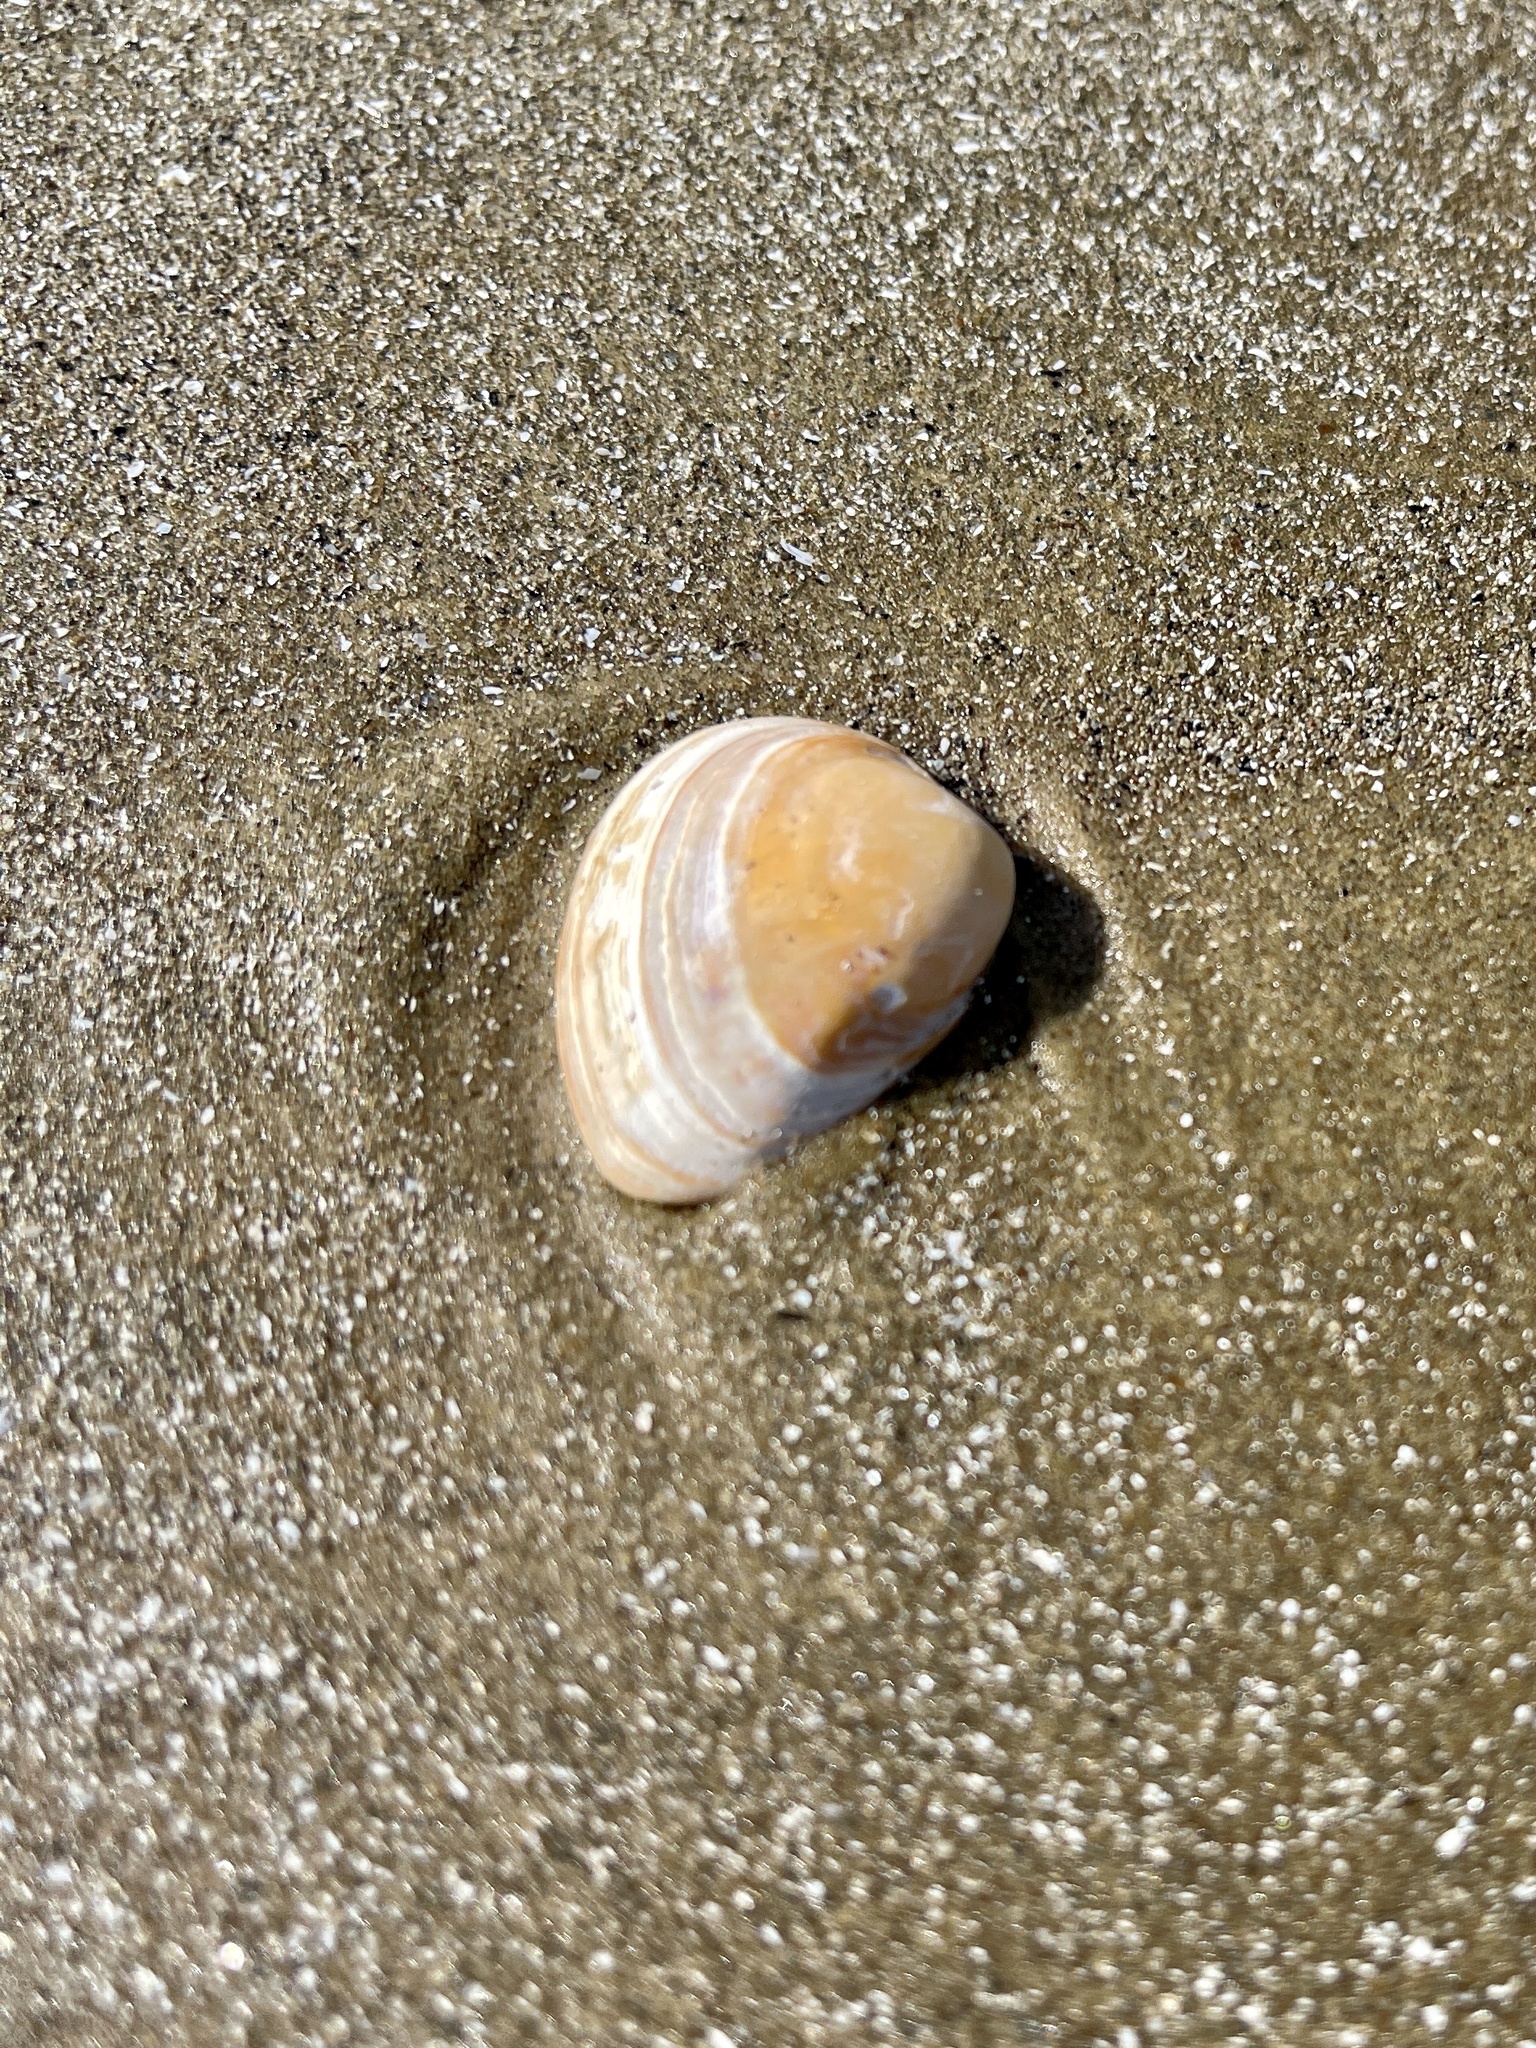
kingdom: Animalia
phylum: Mollusca
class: Bivalvia
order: Venerida
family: Mactridae
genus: Rangia
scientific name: Rangia cuneata
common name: Atlantic rangia
